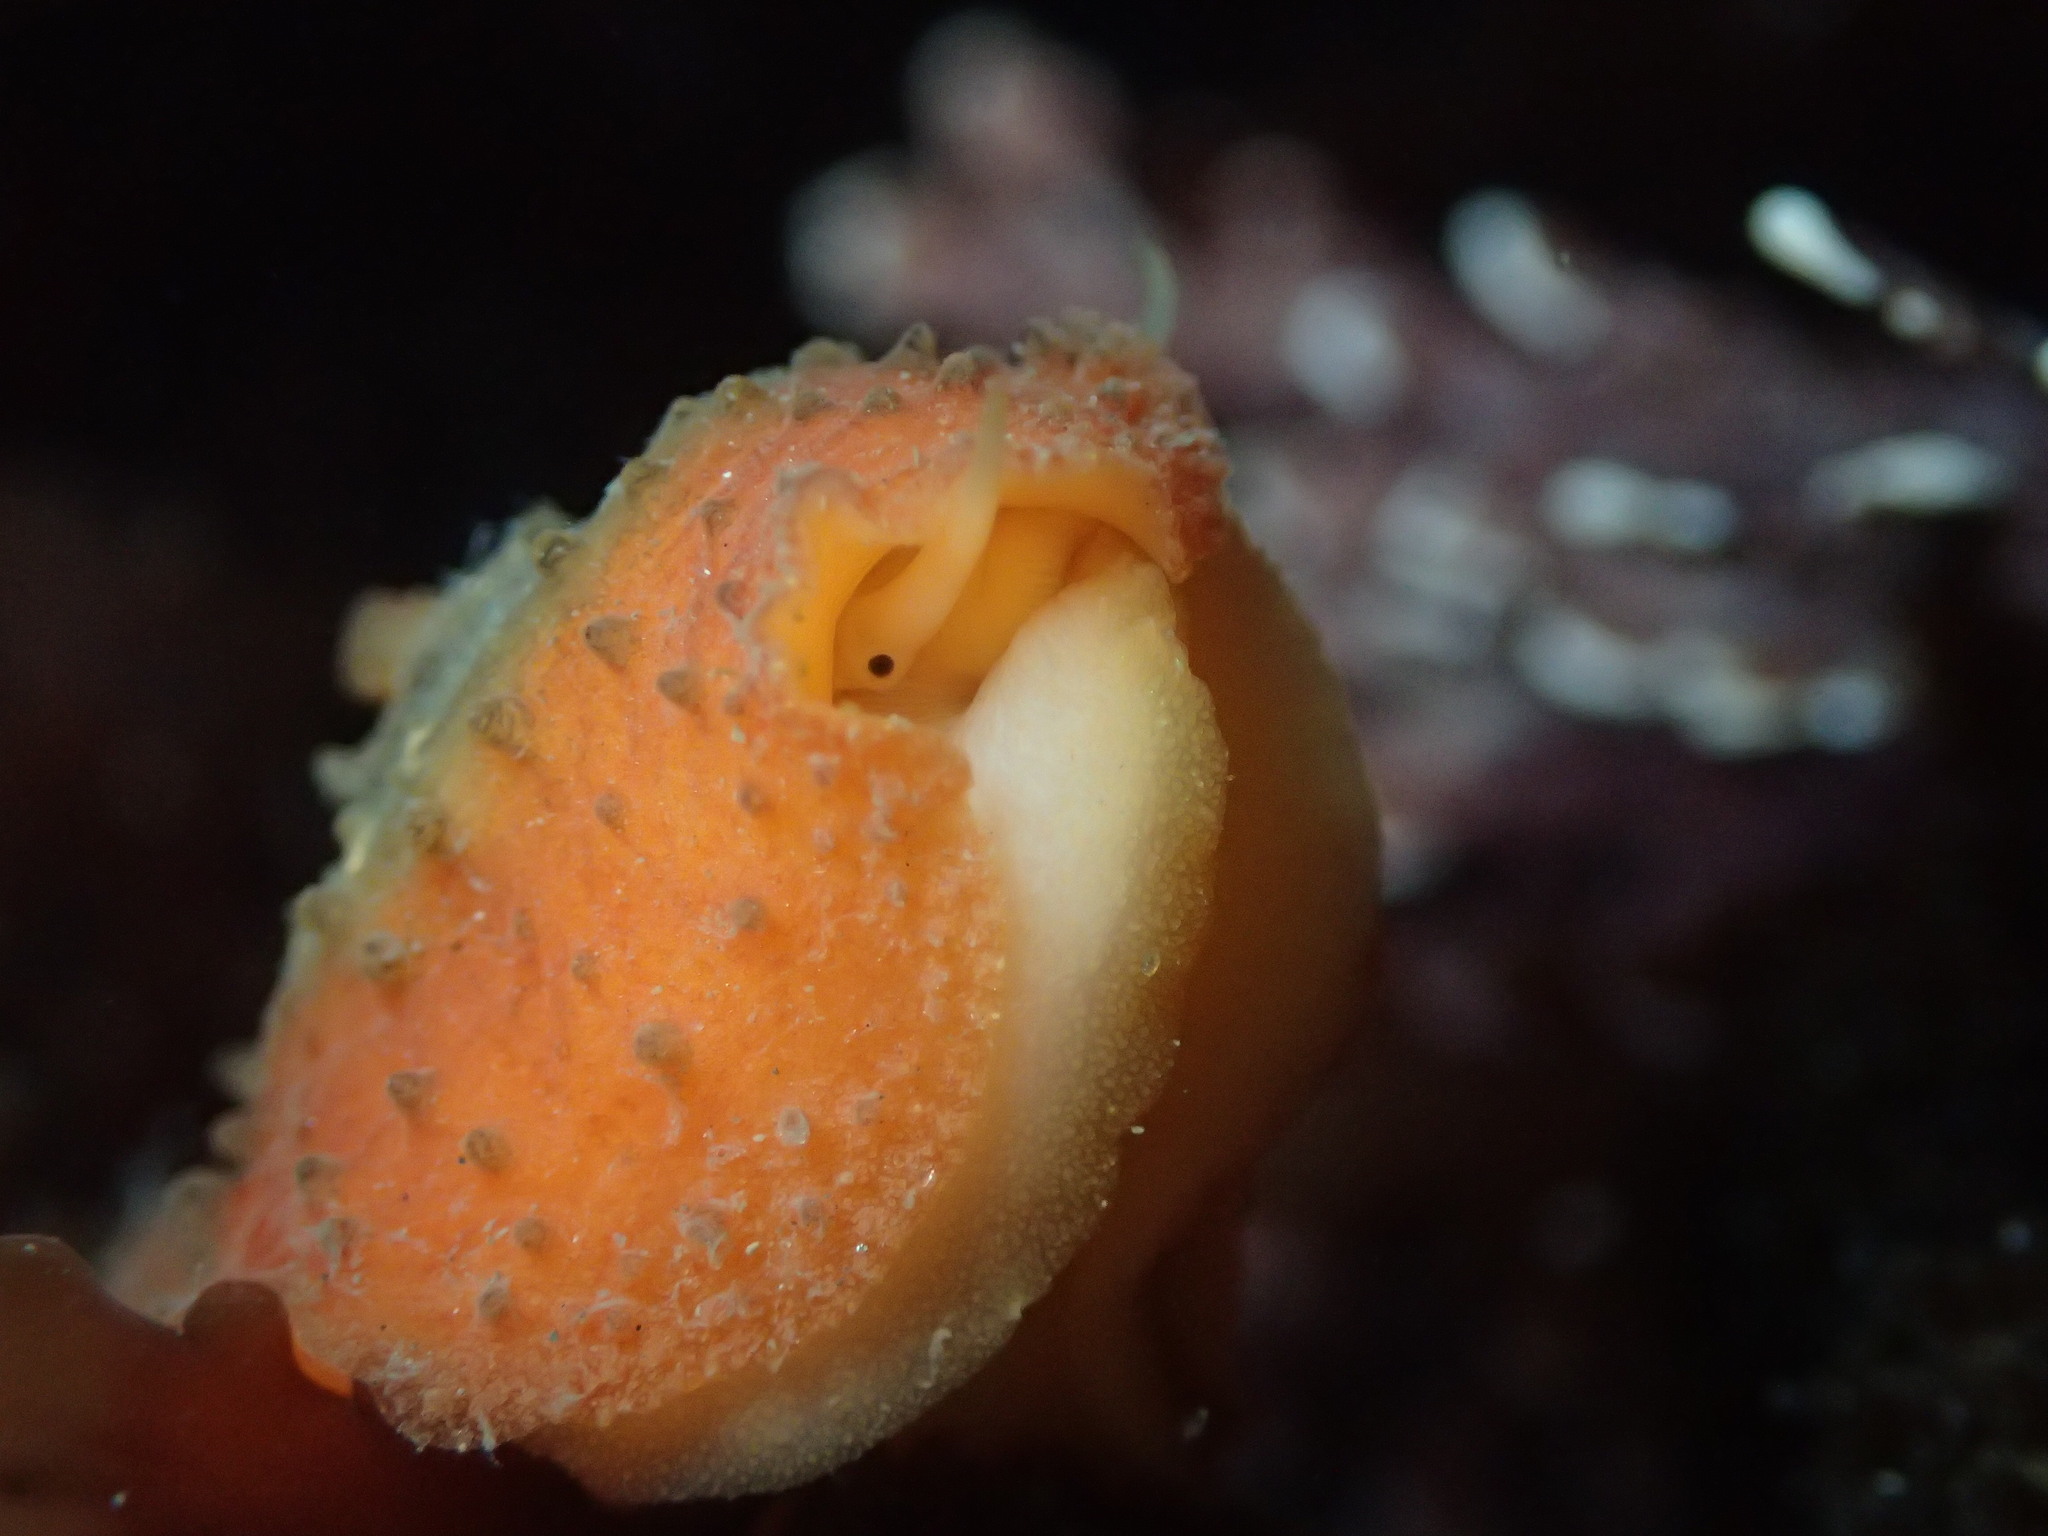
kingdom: Animalia
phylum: Mollusca
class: Gastropoda
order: Lepetellida
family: Fissurellidae
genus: Fissurellidea
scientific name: Fissurellidea bimaculata
